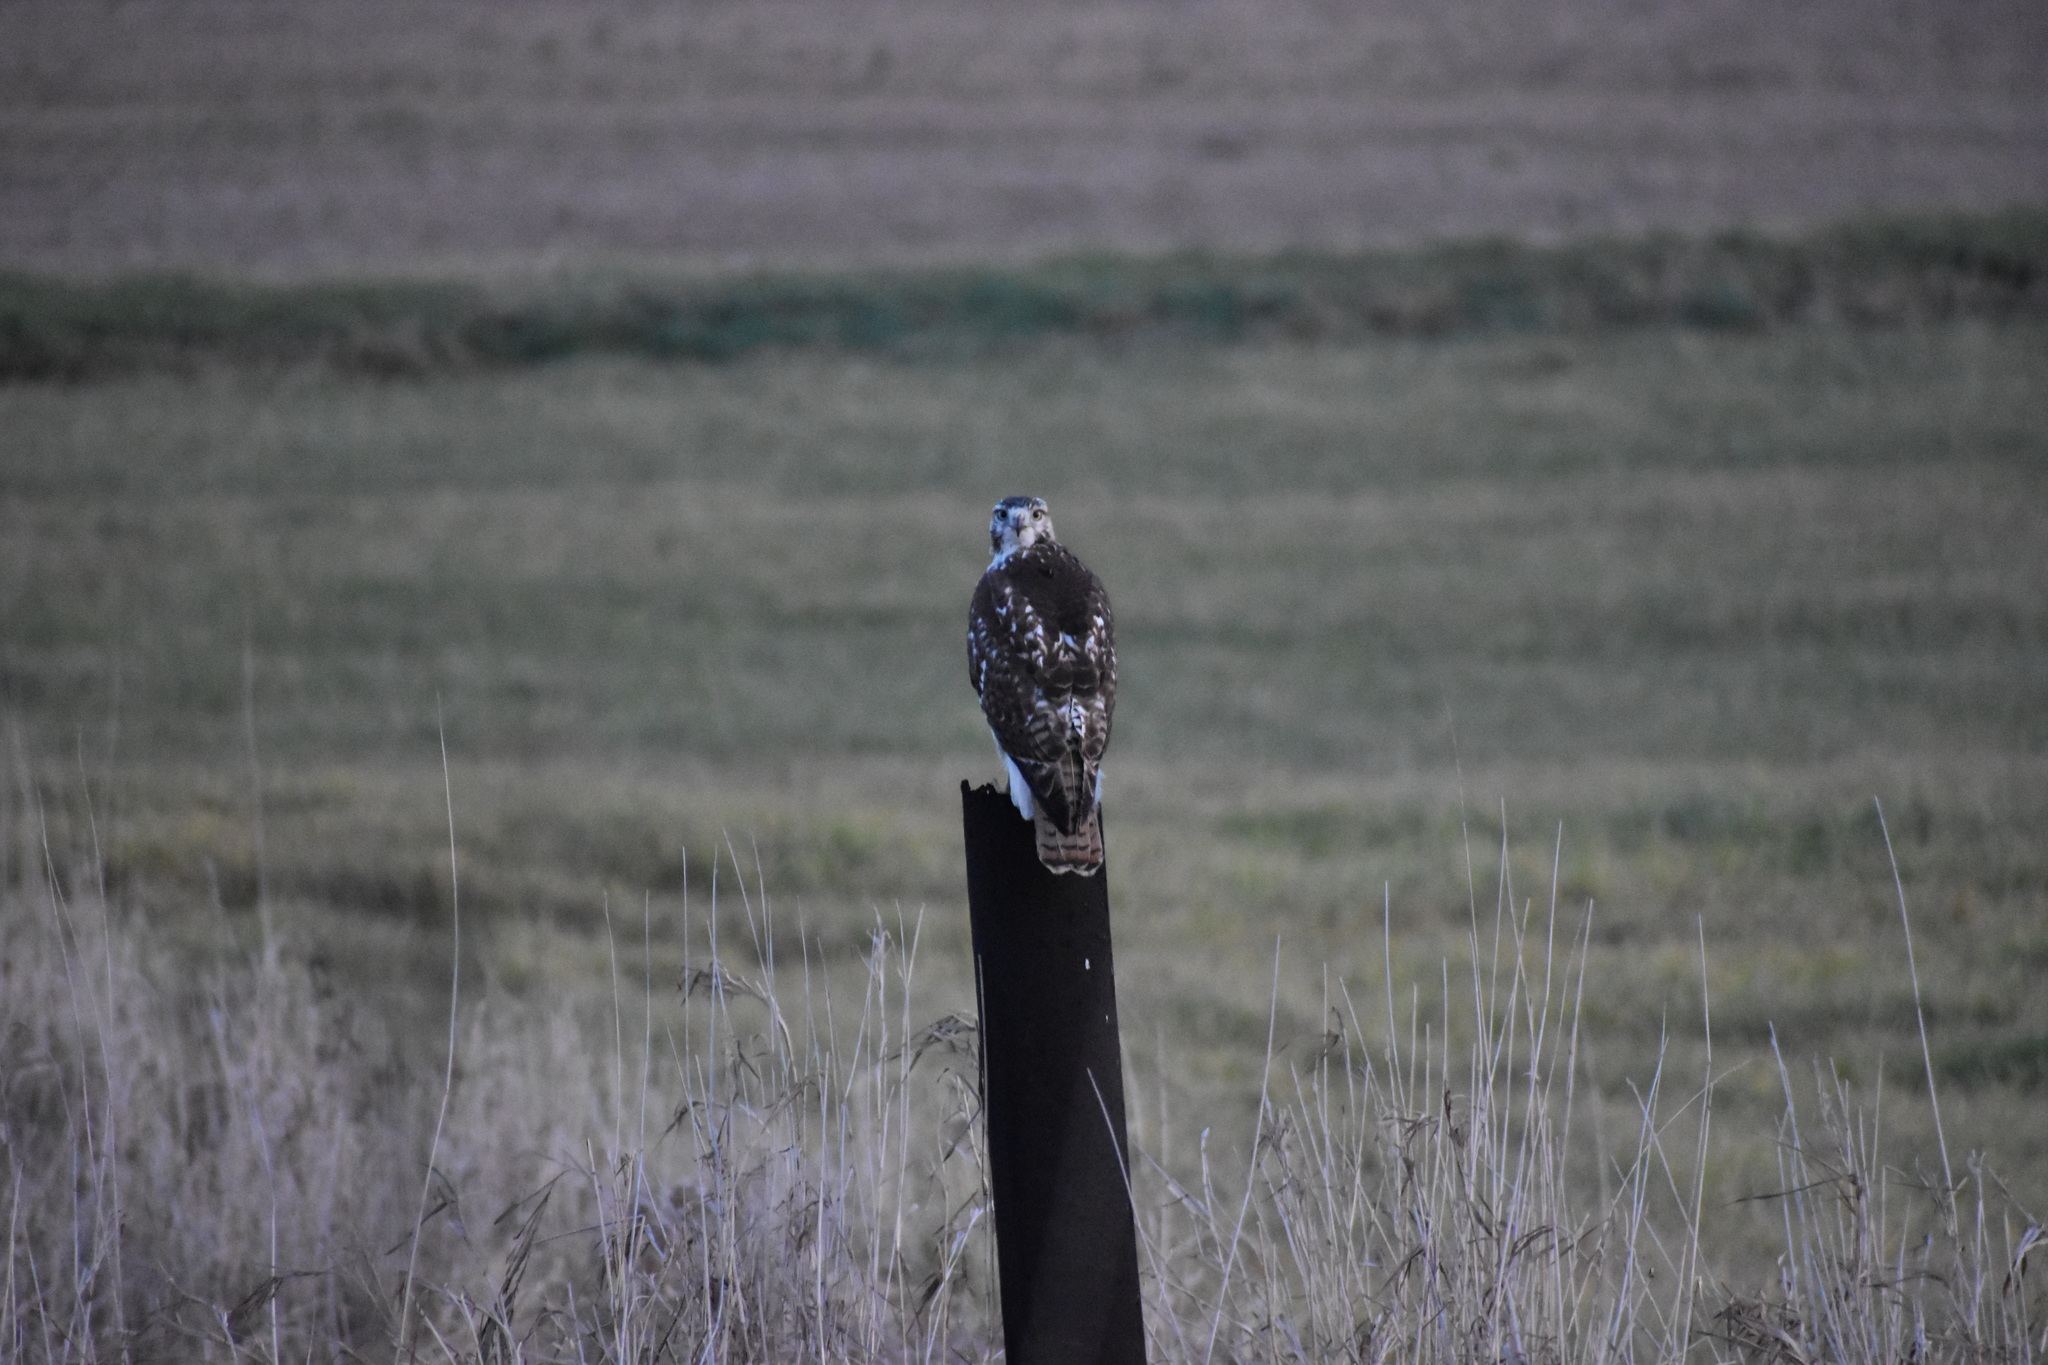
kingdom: Animalia
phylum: Chordata
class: Aves
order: Accipitriformes
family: Accipitridae
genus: Buteo
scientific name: Buteo jamaicensis
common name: Red-tailed hawk
